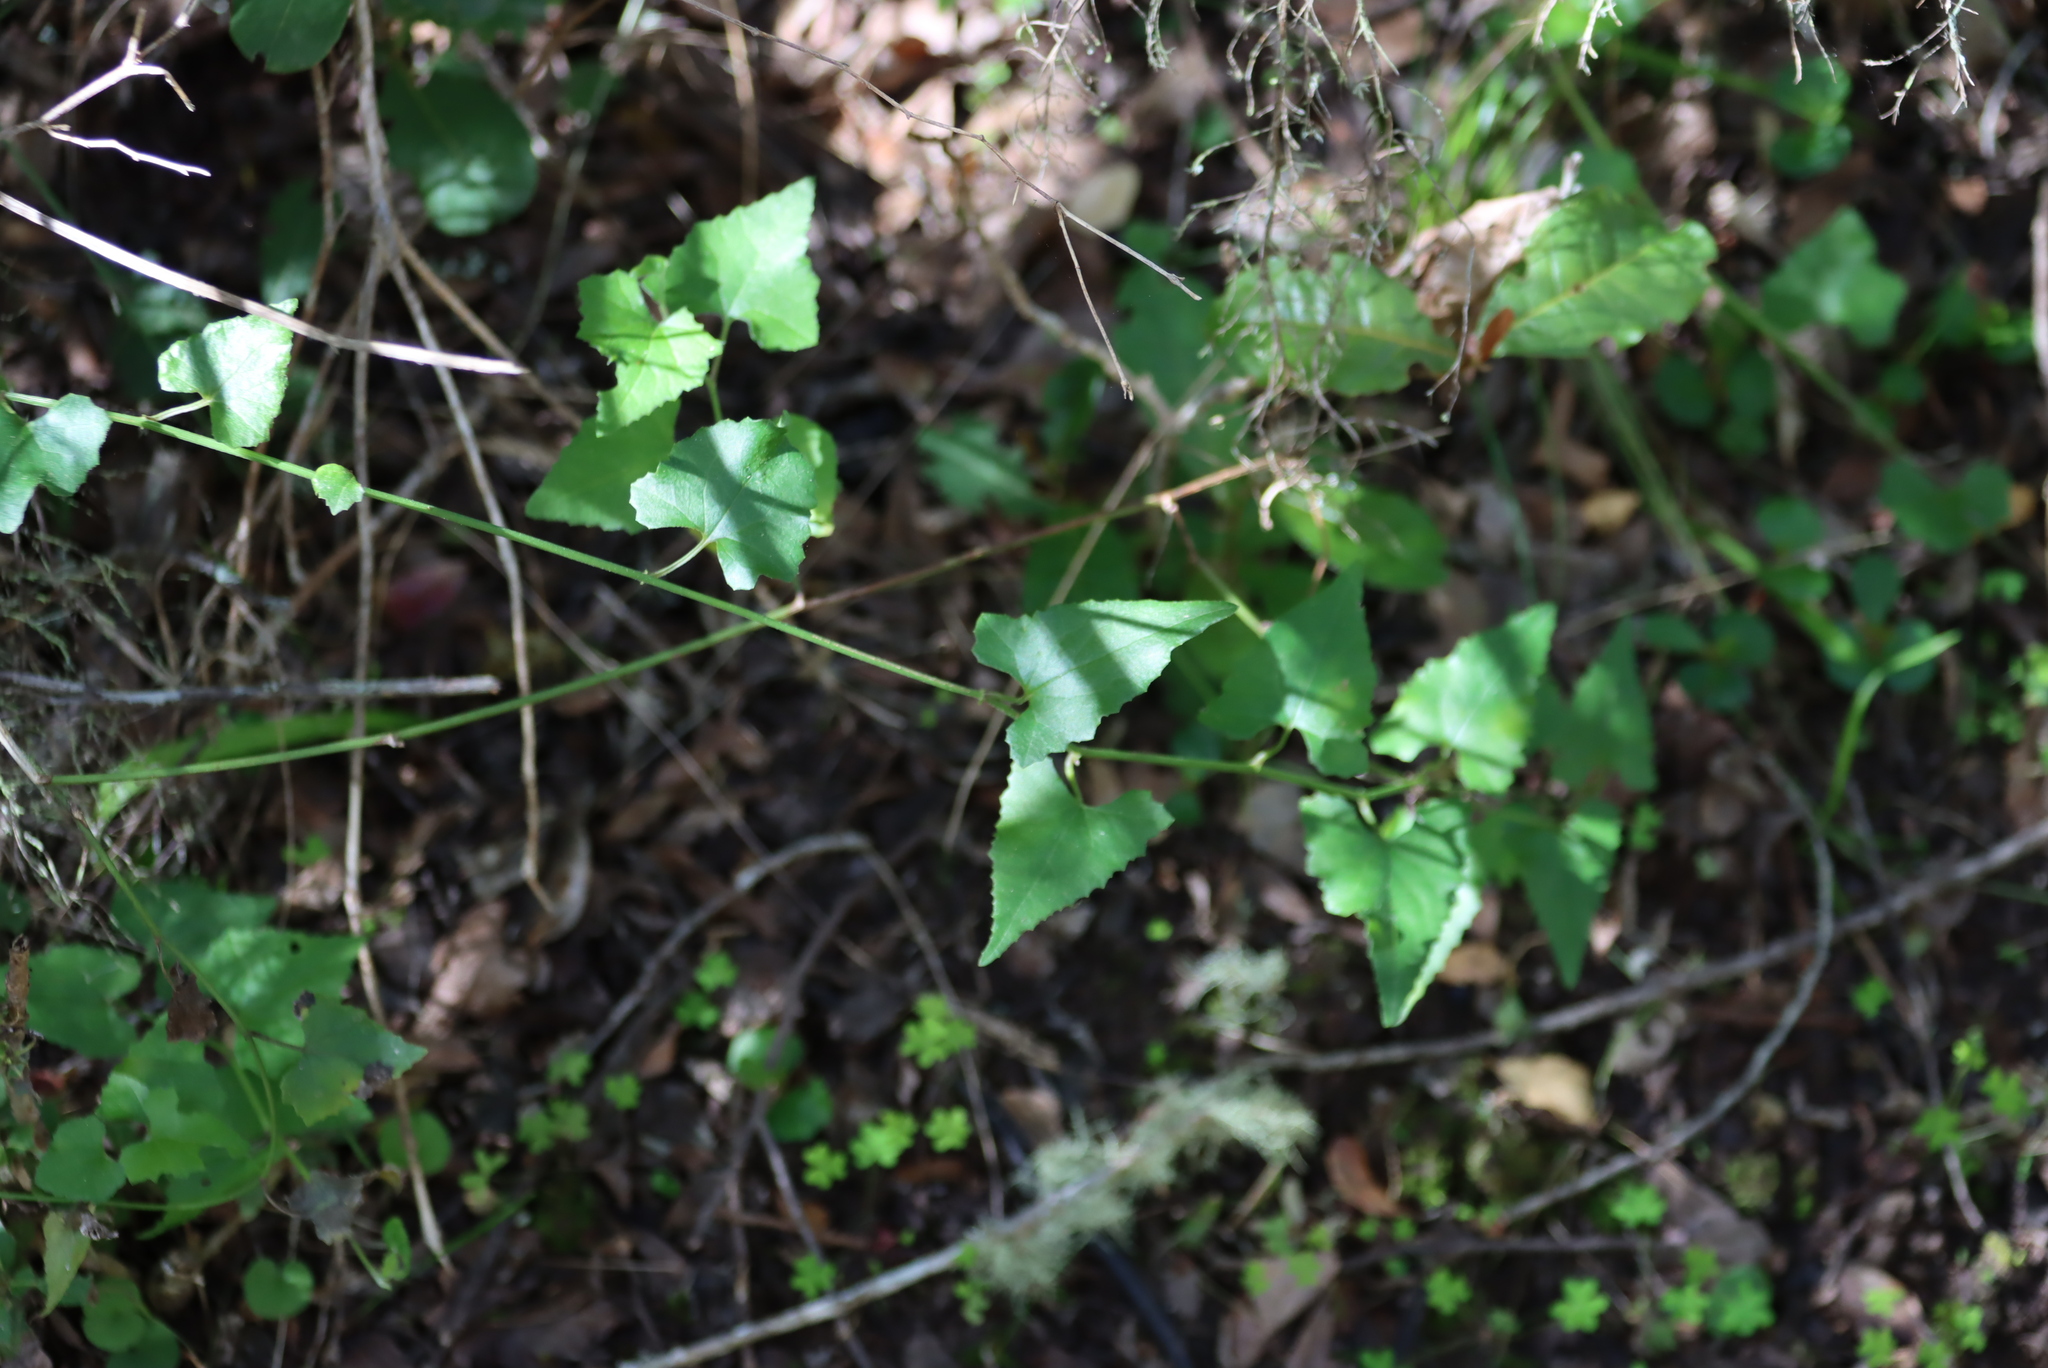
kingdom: Plantae
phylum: Tracheophyta
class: Magnoliopsida
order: Asterales
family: Asteraceae
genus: Senecio
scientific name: Senecio deltoideus
